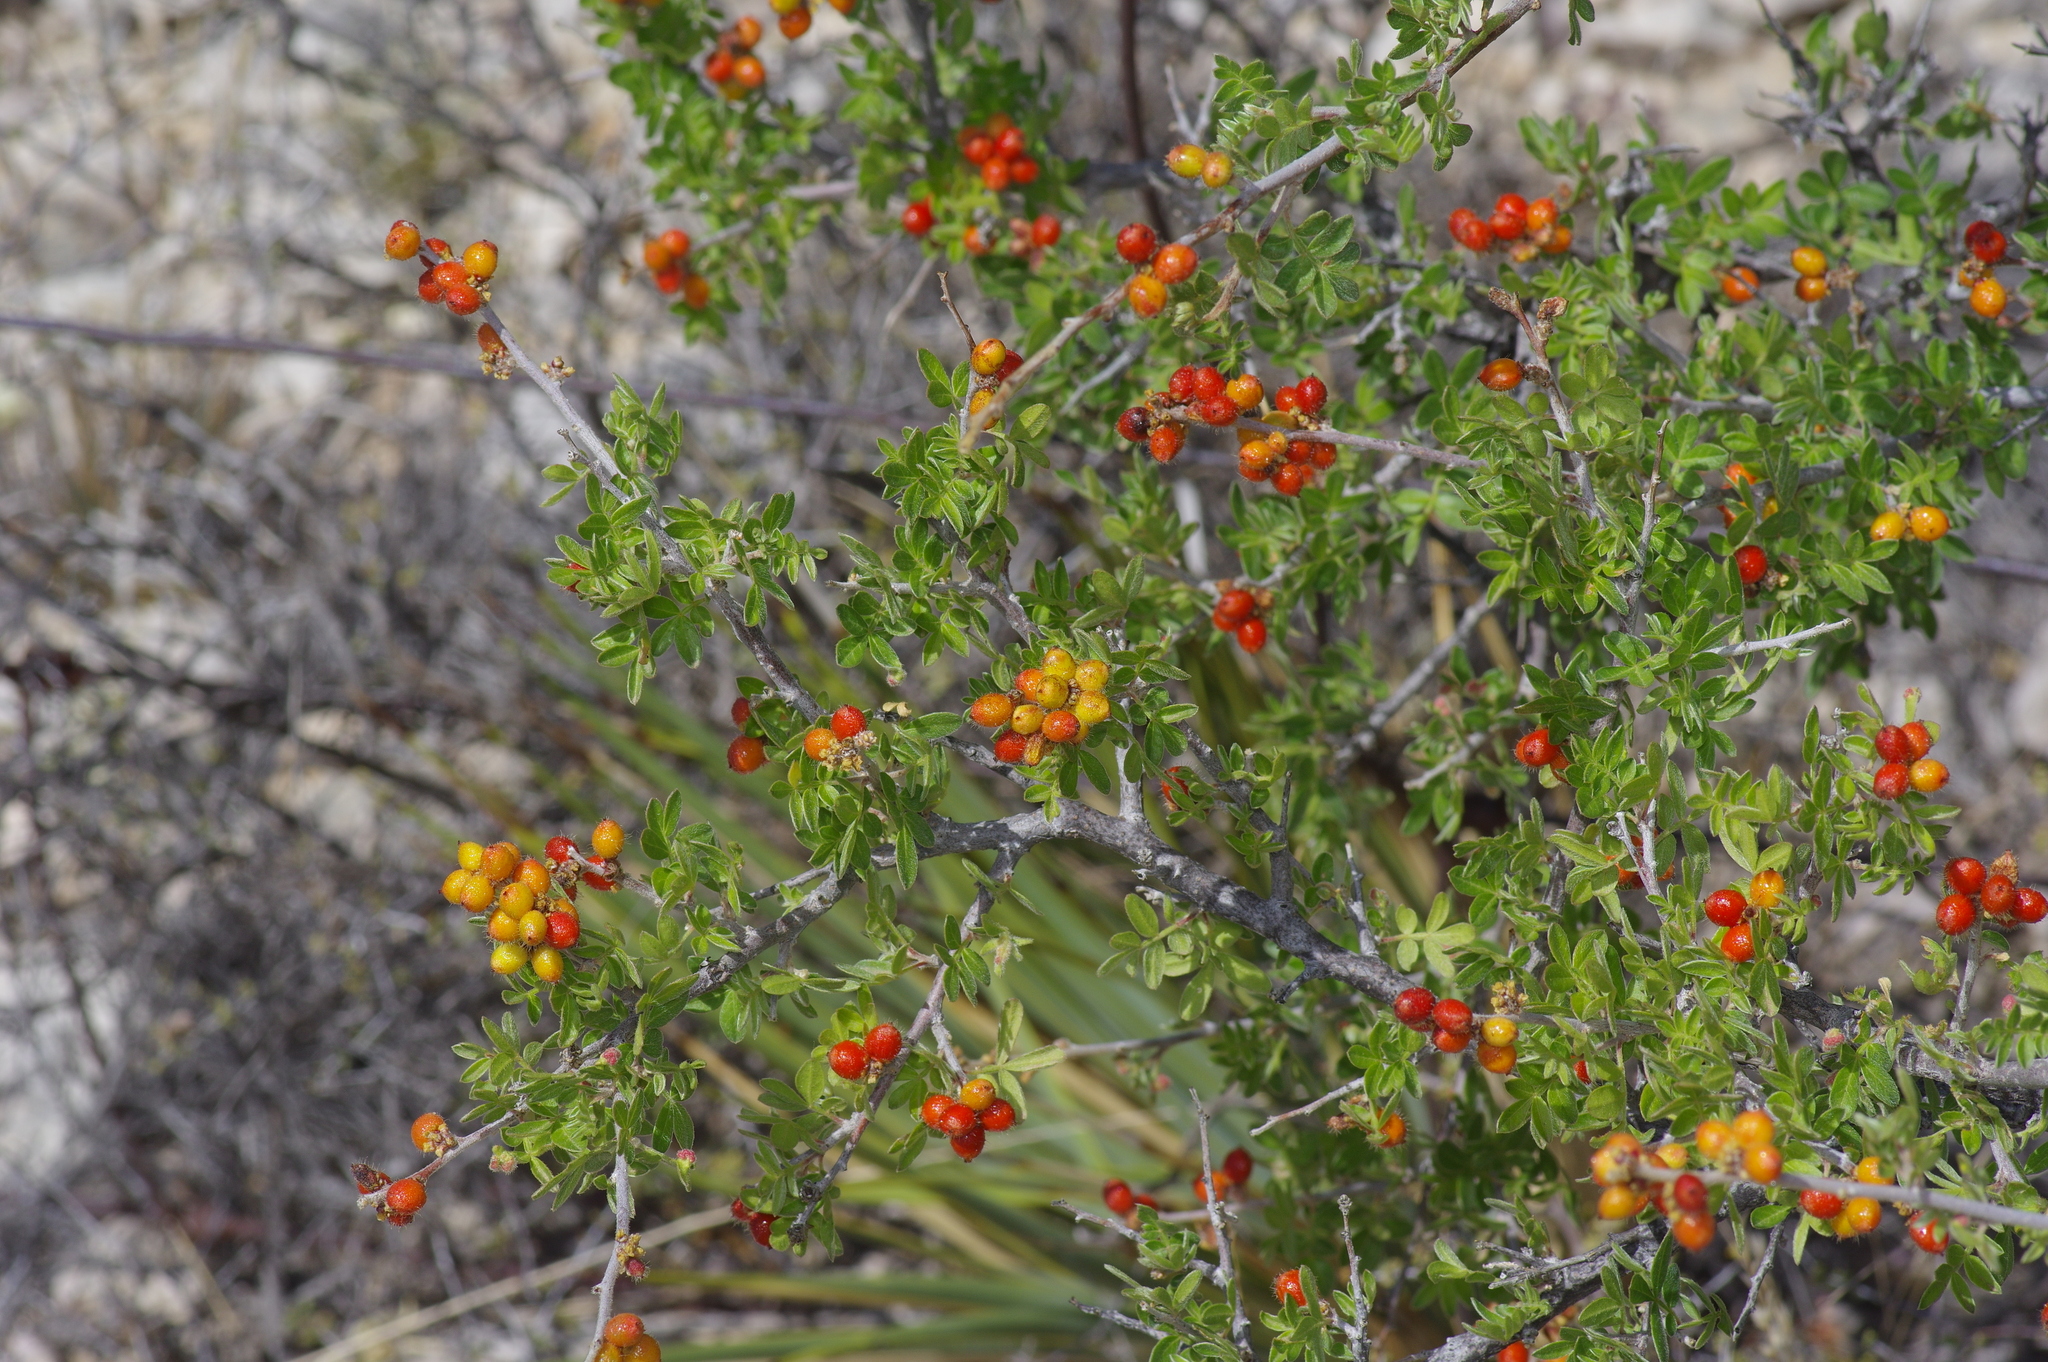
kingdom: Plantae
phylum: Tracheophyta
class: Magnoliopsida
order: Sapindales
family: Anacardiaceae
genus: Rhus
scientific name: Rhus microphylla
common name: Desert sumac
